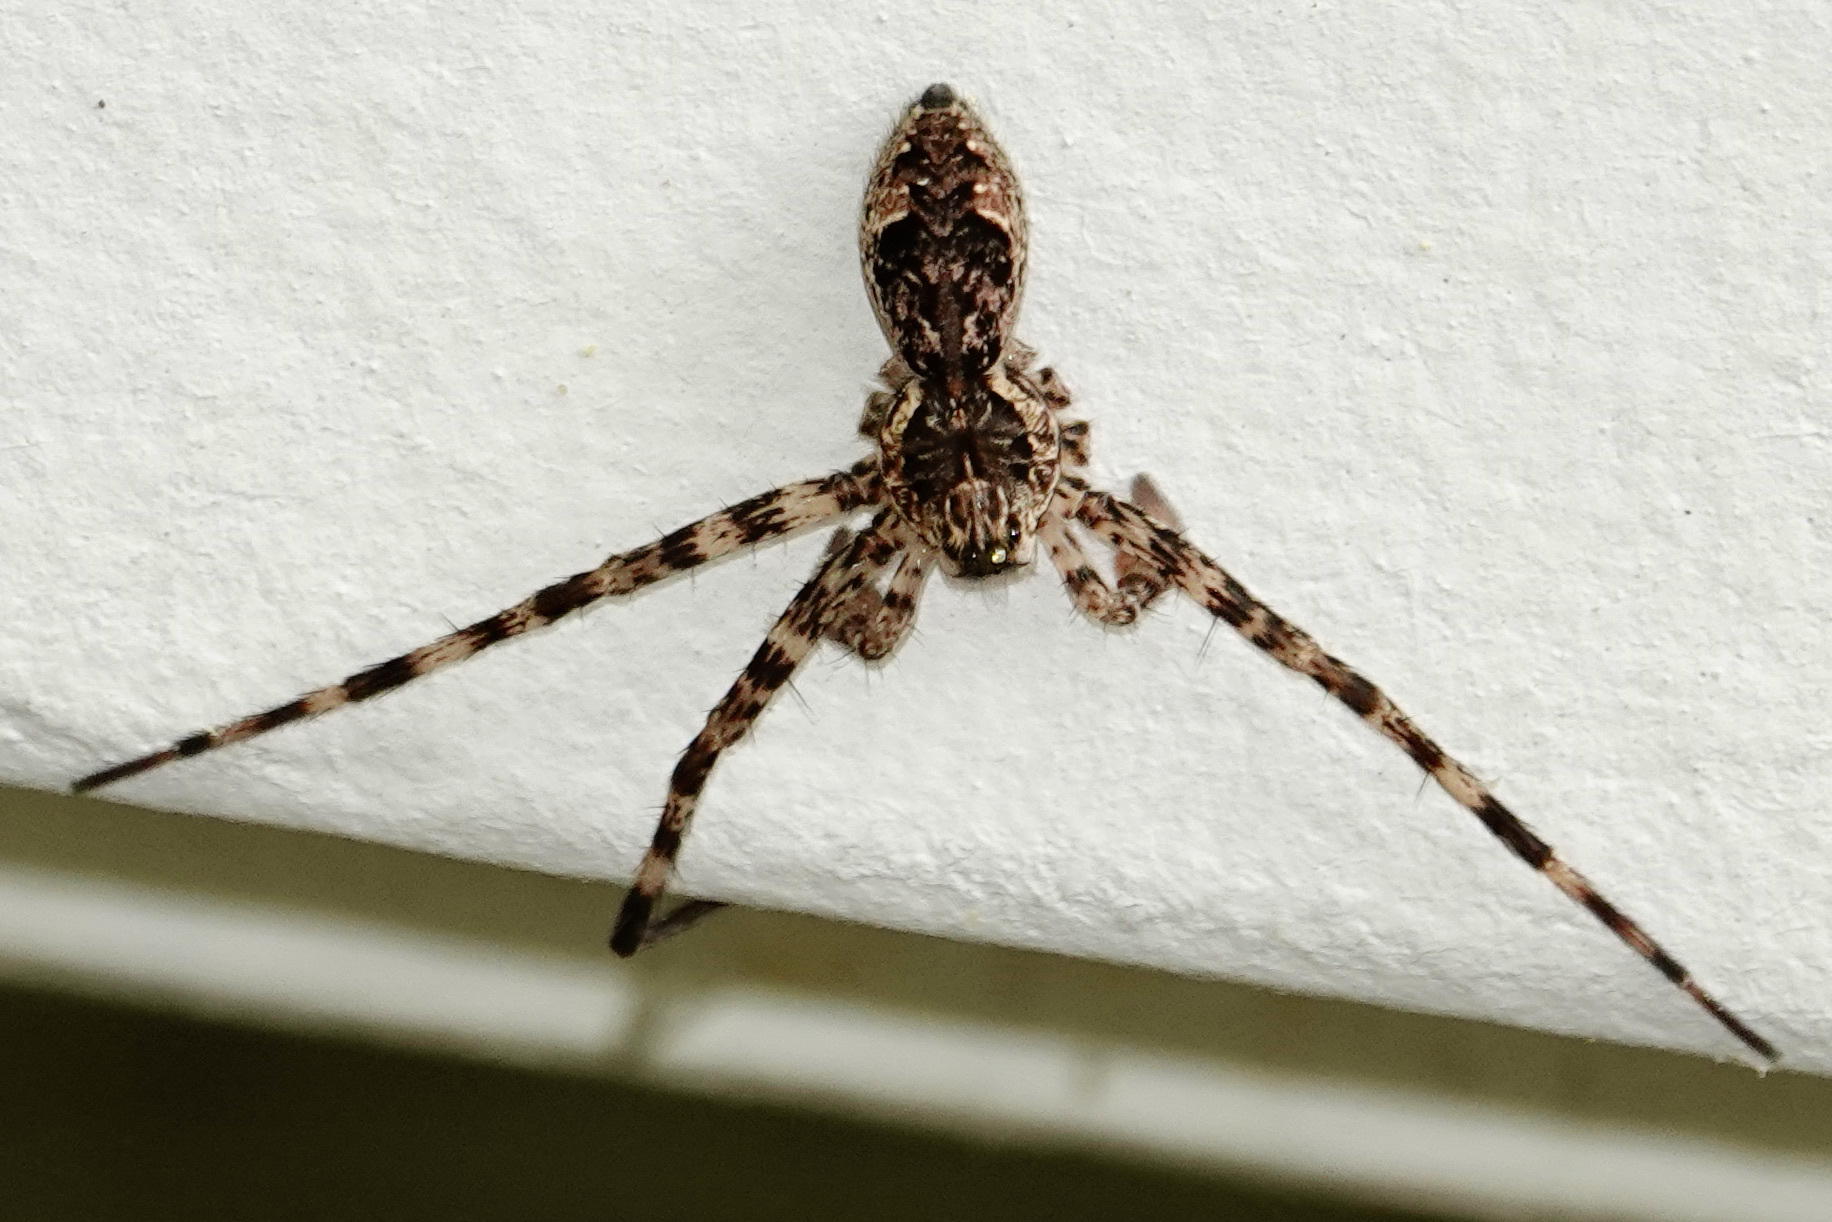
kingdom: Animalia
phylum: Arthropoda
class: Arachnida
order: Araneae
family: Pisauridae
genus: Dolomedes
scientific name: Dolomedes tenebrosus
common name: Dark fishing spider
